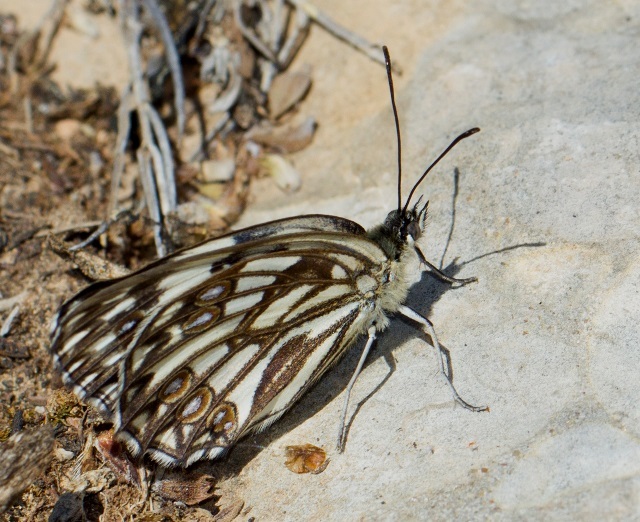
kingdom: Animalia
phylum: Arthropoda
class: Insecta
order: Lepidoptera
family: Nymphalidae
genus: Melanargia
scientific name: Melanargia occitanica
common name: Western marbled white
